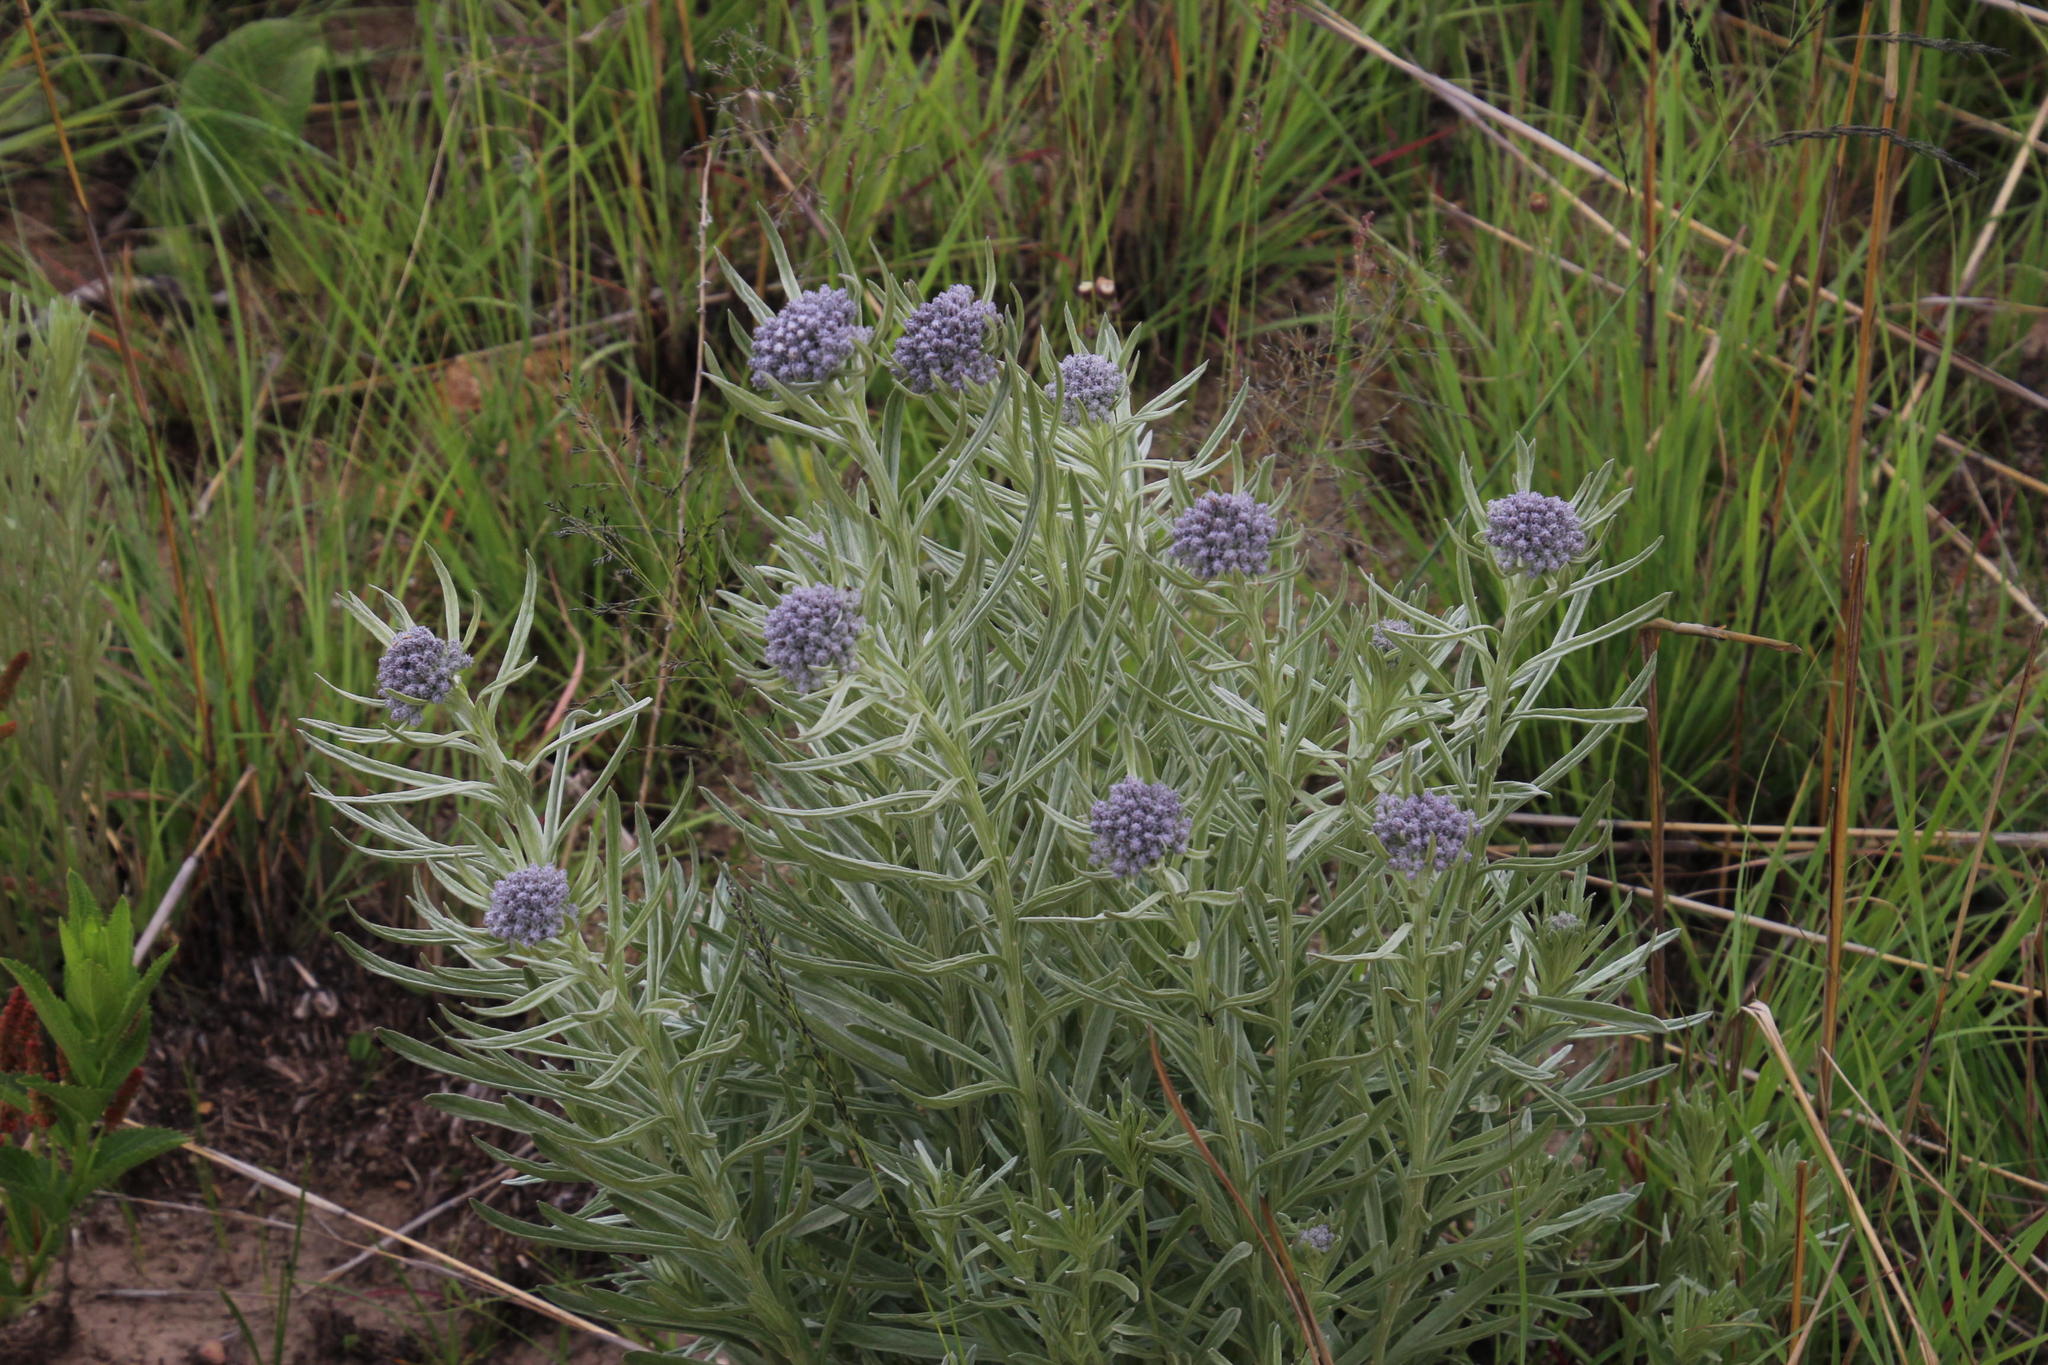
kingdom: Plantae
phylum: Tracheophyta
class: Magnoliopsida
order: Asterales
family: Asteraceae
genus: Hilliardiella
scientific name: Hilliardiella aristata
